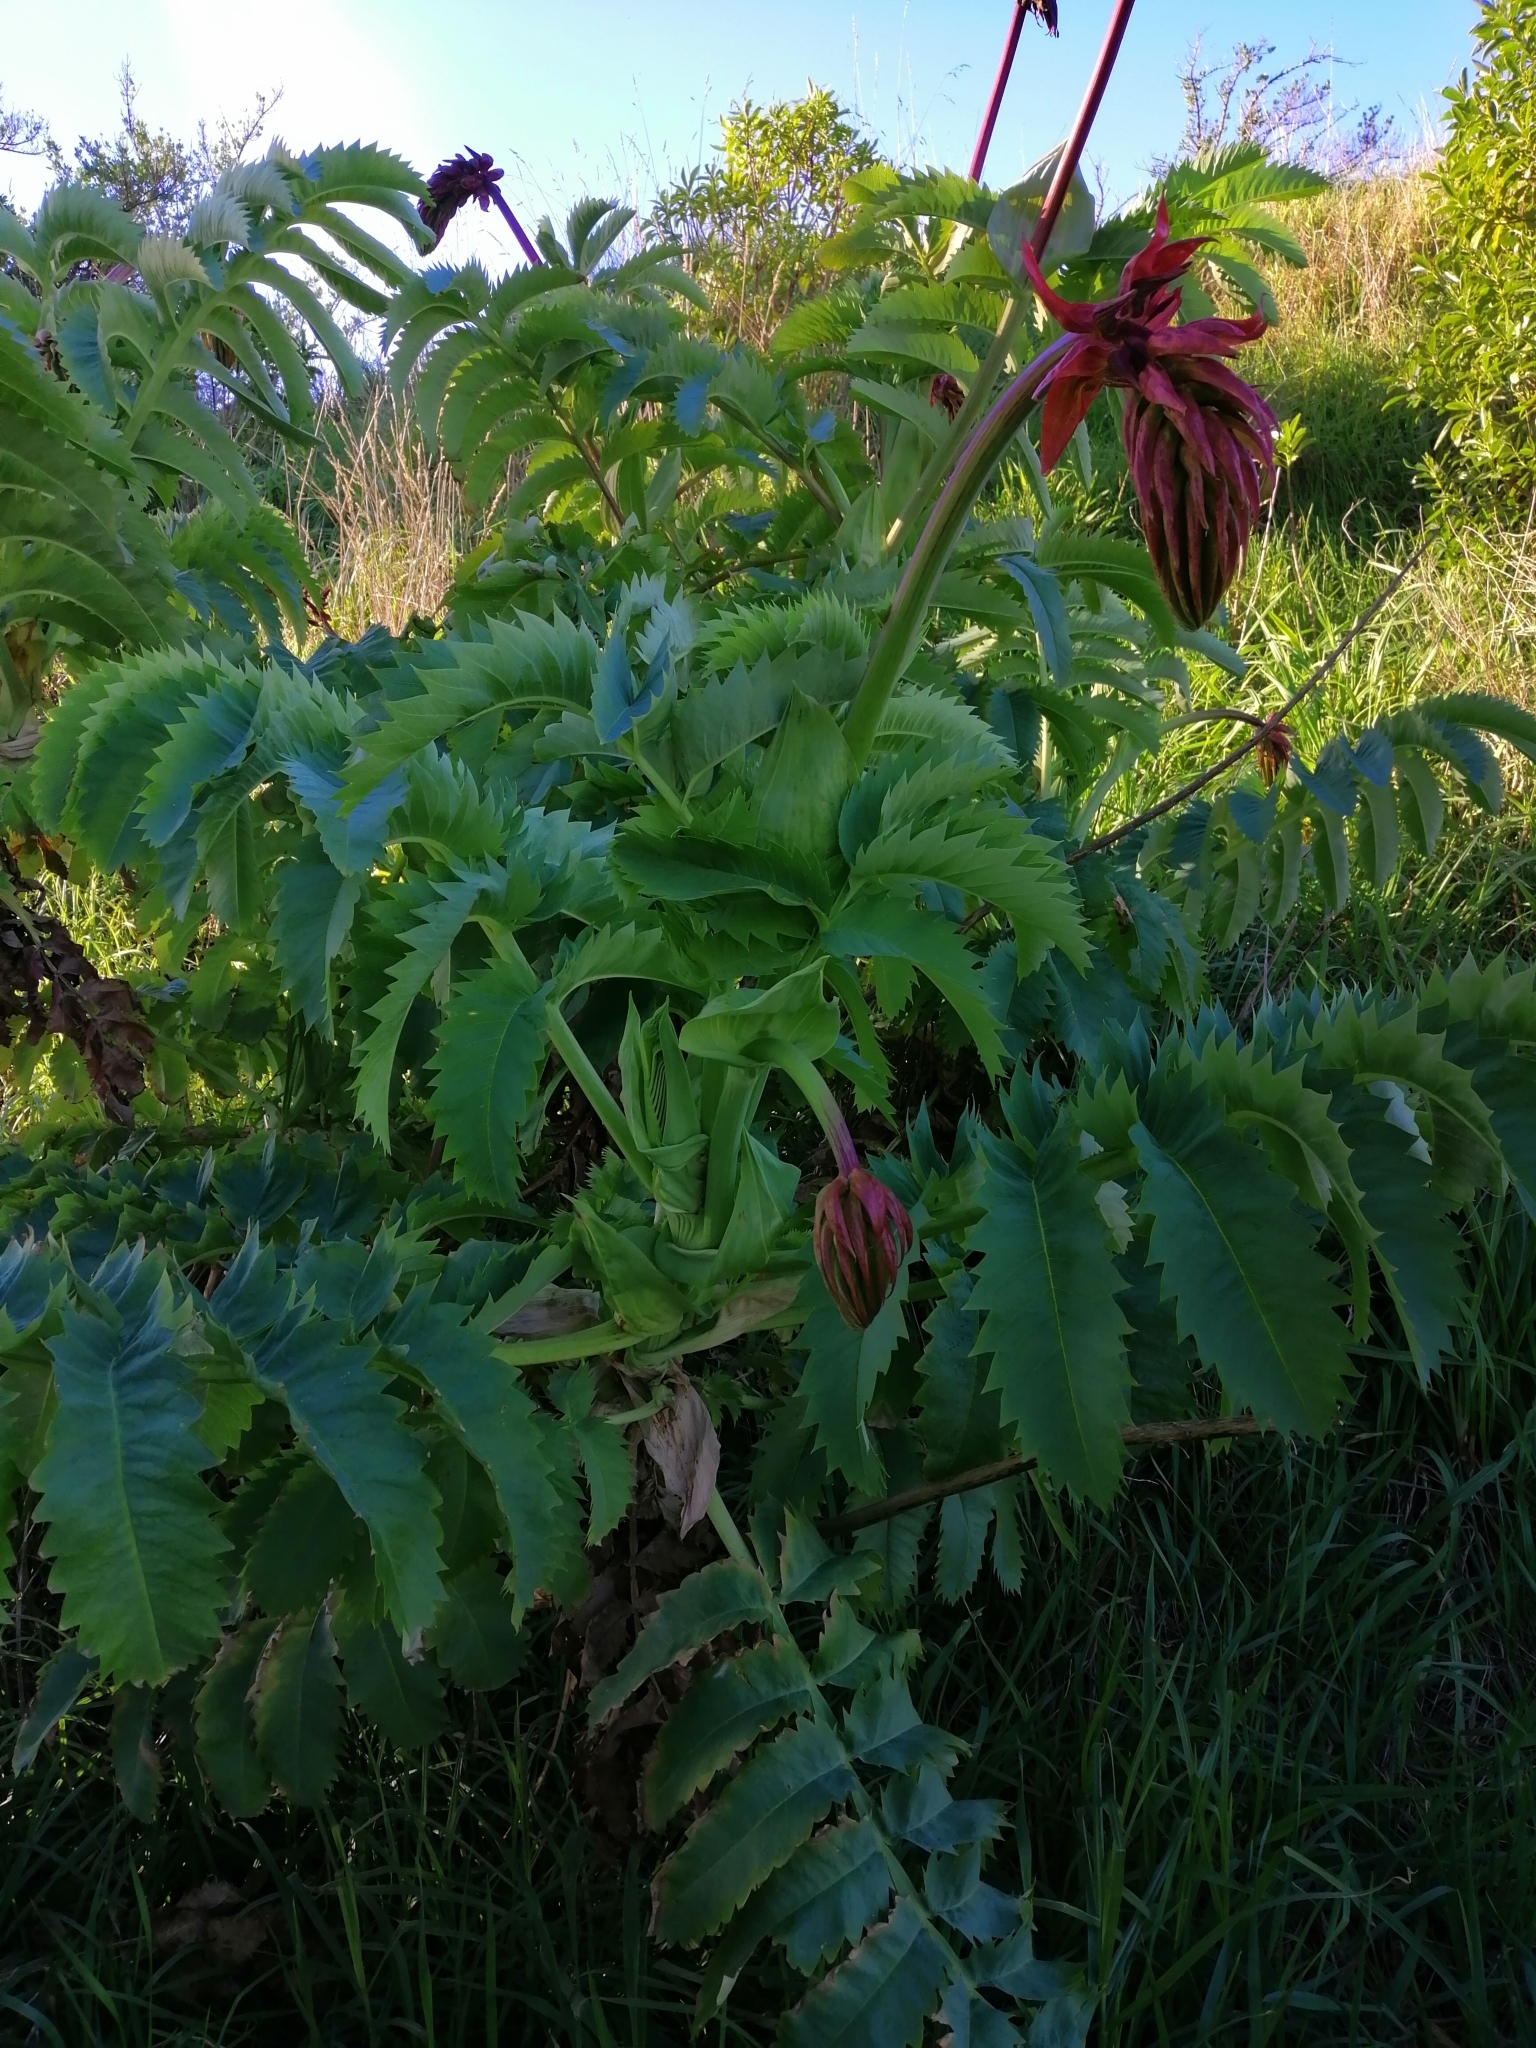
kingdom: Plantae
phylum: Tracheophyta
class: Magnoliopsida
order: Geraniales
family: Melianthaceae
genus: Melianthus
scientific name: Melianthus major
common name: Honey-flower
